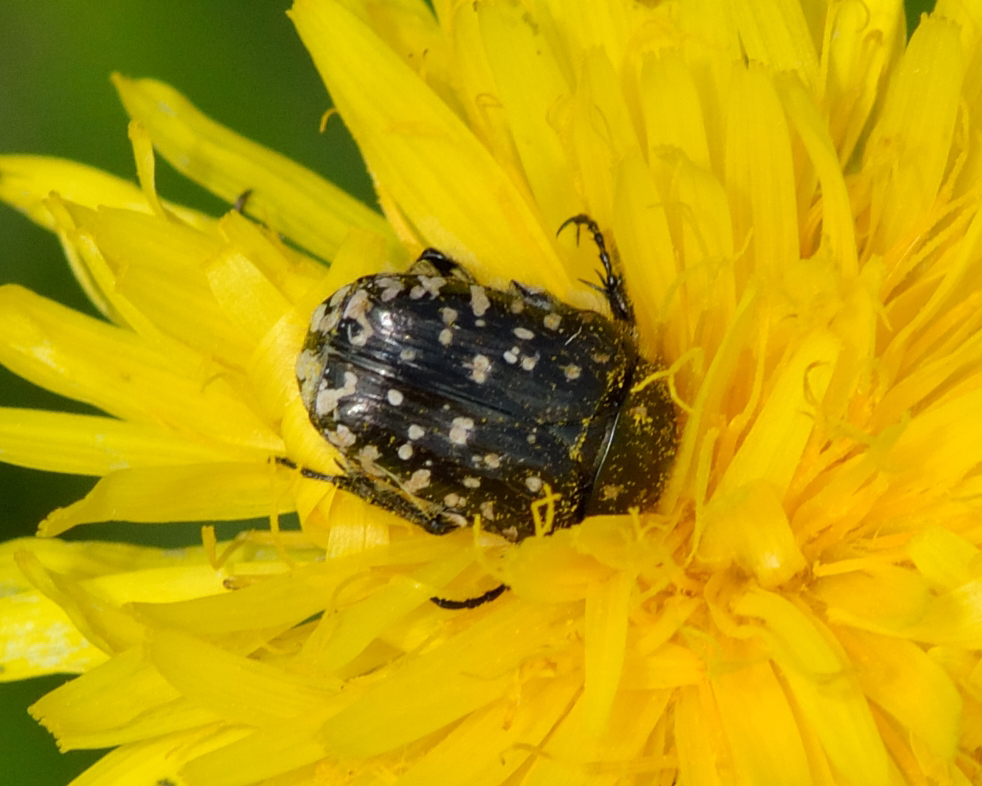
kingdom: Animalia
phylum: Arthropoda
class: Insecta
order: Coleoptera
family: Scarabaeidae
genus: Oxythyrea
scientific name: Oxythyrea funesta
